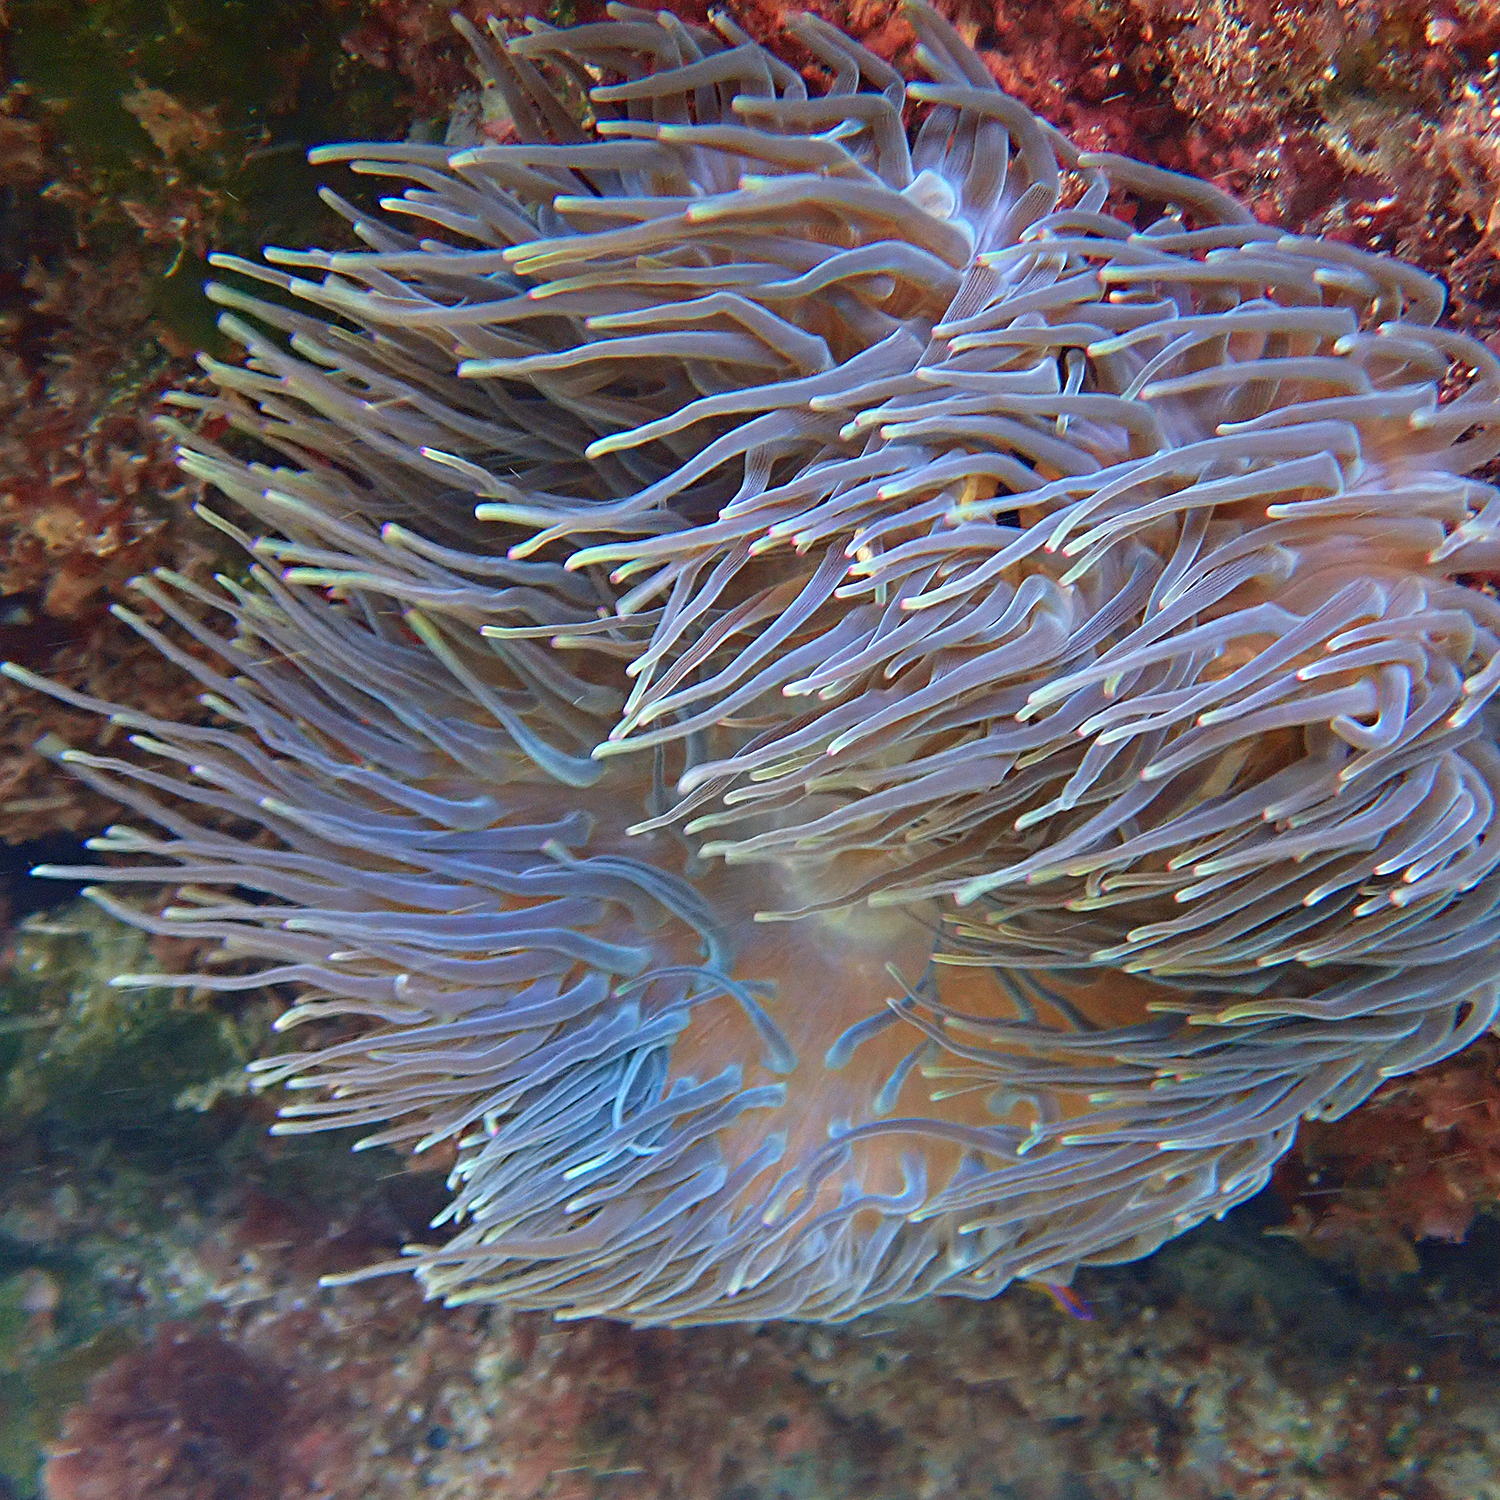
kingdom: Animalia
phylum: Cnidaria
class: Anthozoa
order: Actiniaria
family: Actiniidae
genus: Entacmaea
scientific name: Entacmaea quadricolor
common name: Bulb tentacle sea anemone
